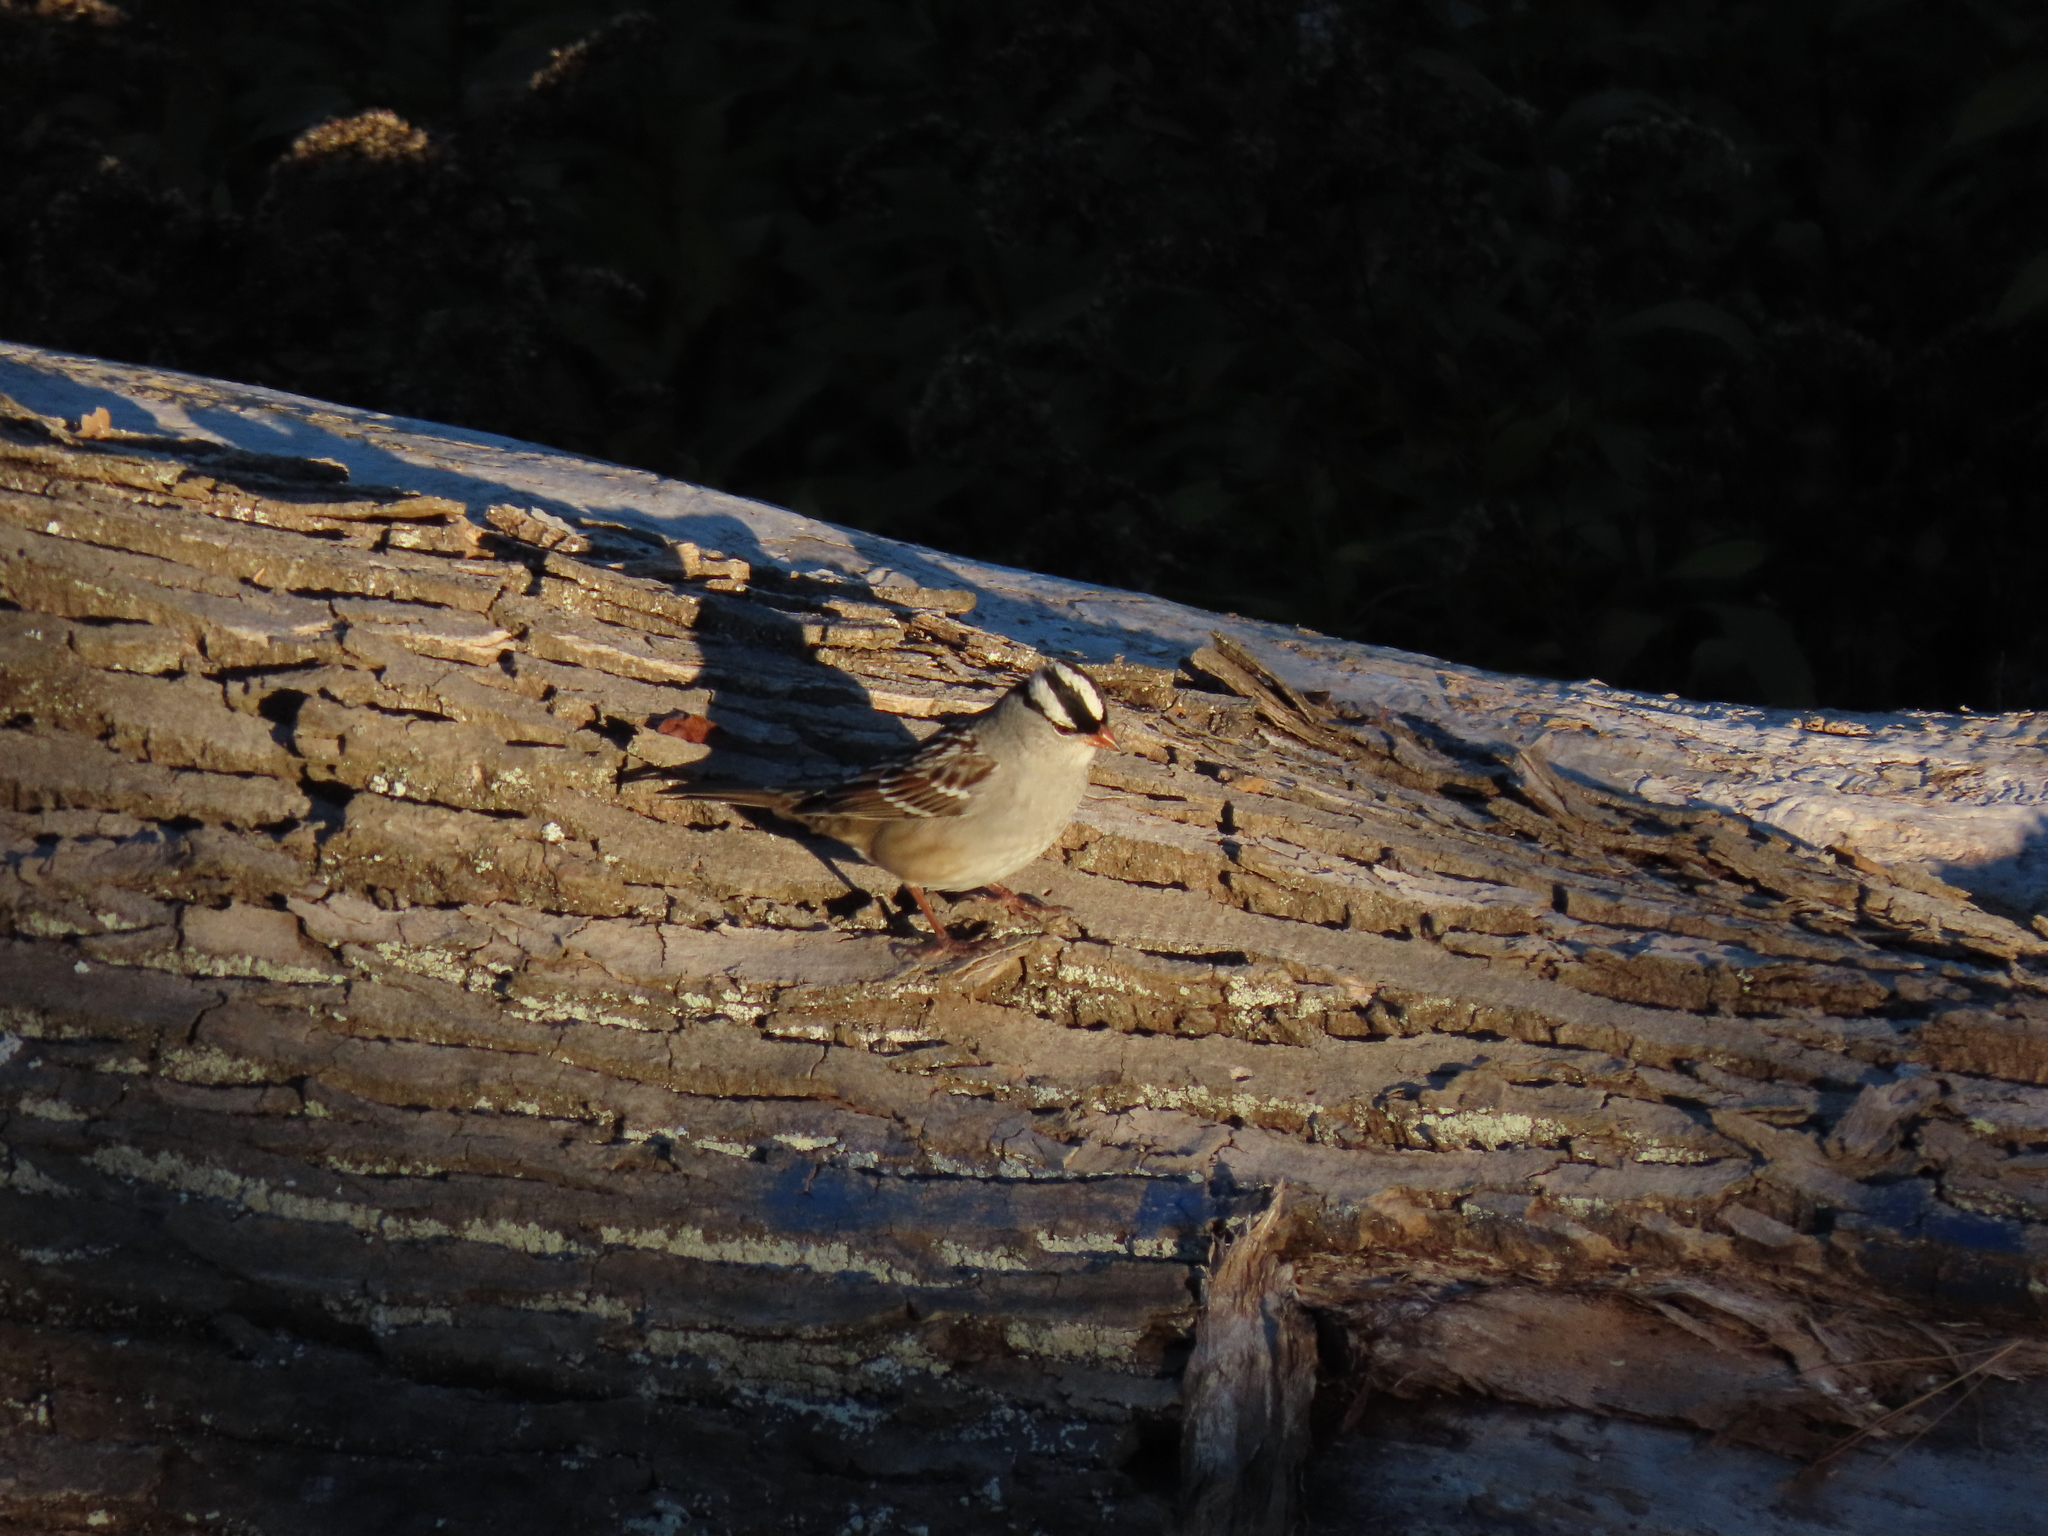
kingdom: Animalia
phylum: Chordata
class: Aves
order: Passeriformes
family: Passerellidae
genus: Zonotrichia
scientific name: Zonotrichia leucophrys
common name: White-crowned sparrow
